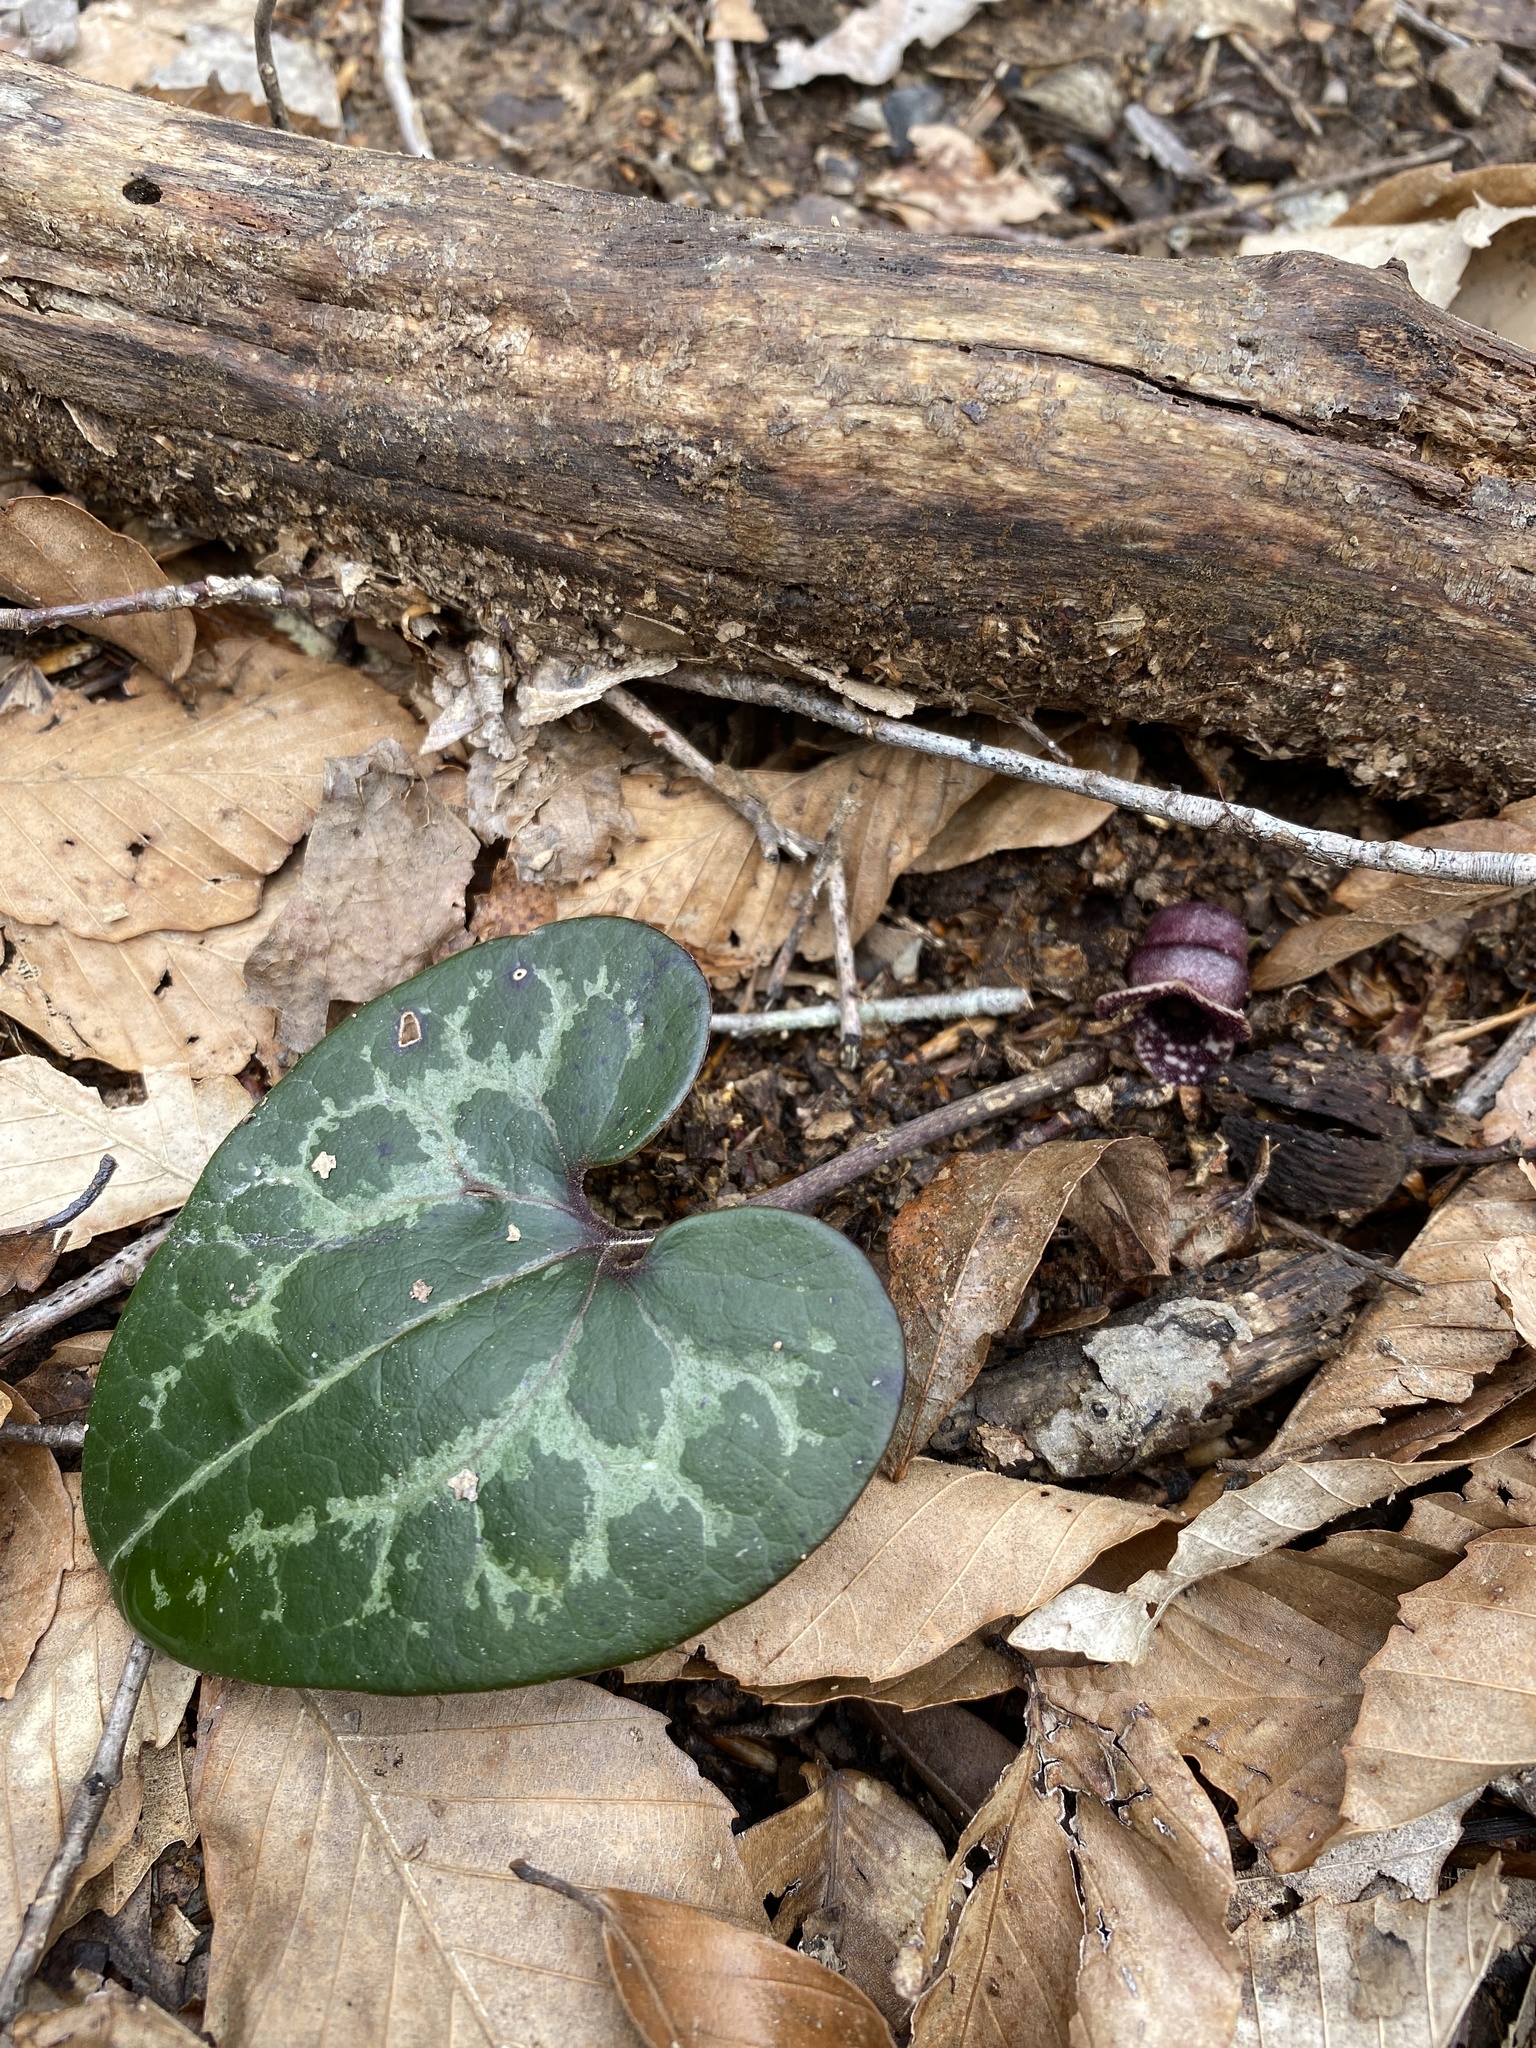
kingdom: Plantae
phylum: Tracheophyta
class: Magnoliopsida
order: Piperales
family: Aristolochiaceae
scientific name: Aristolochiaceae
